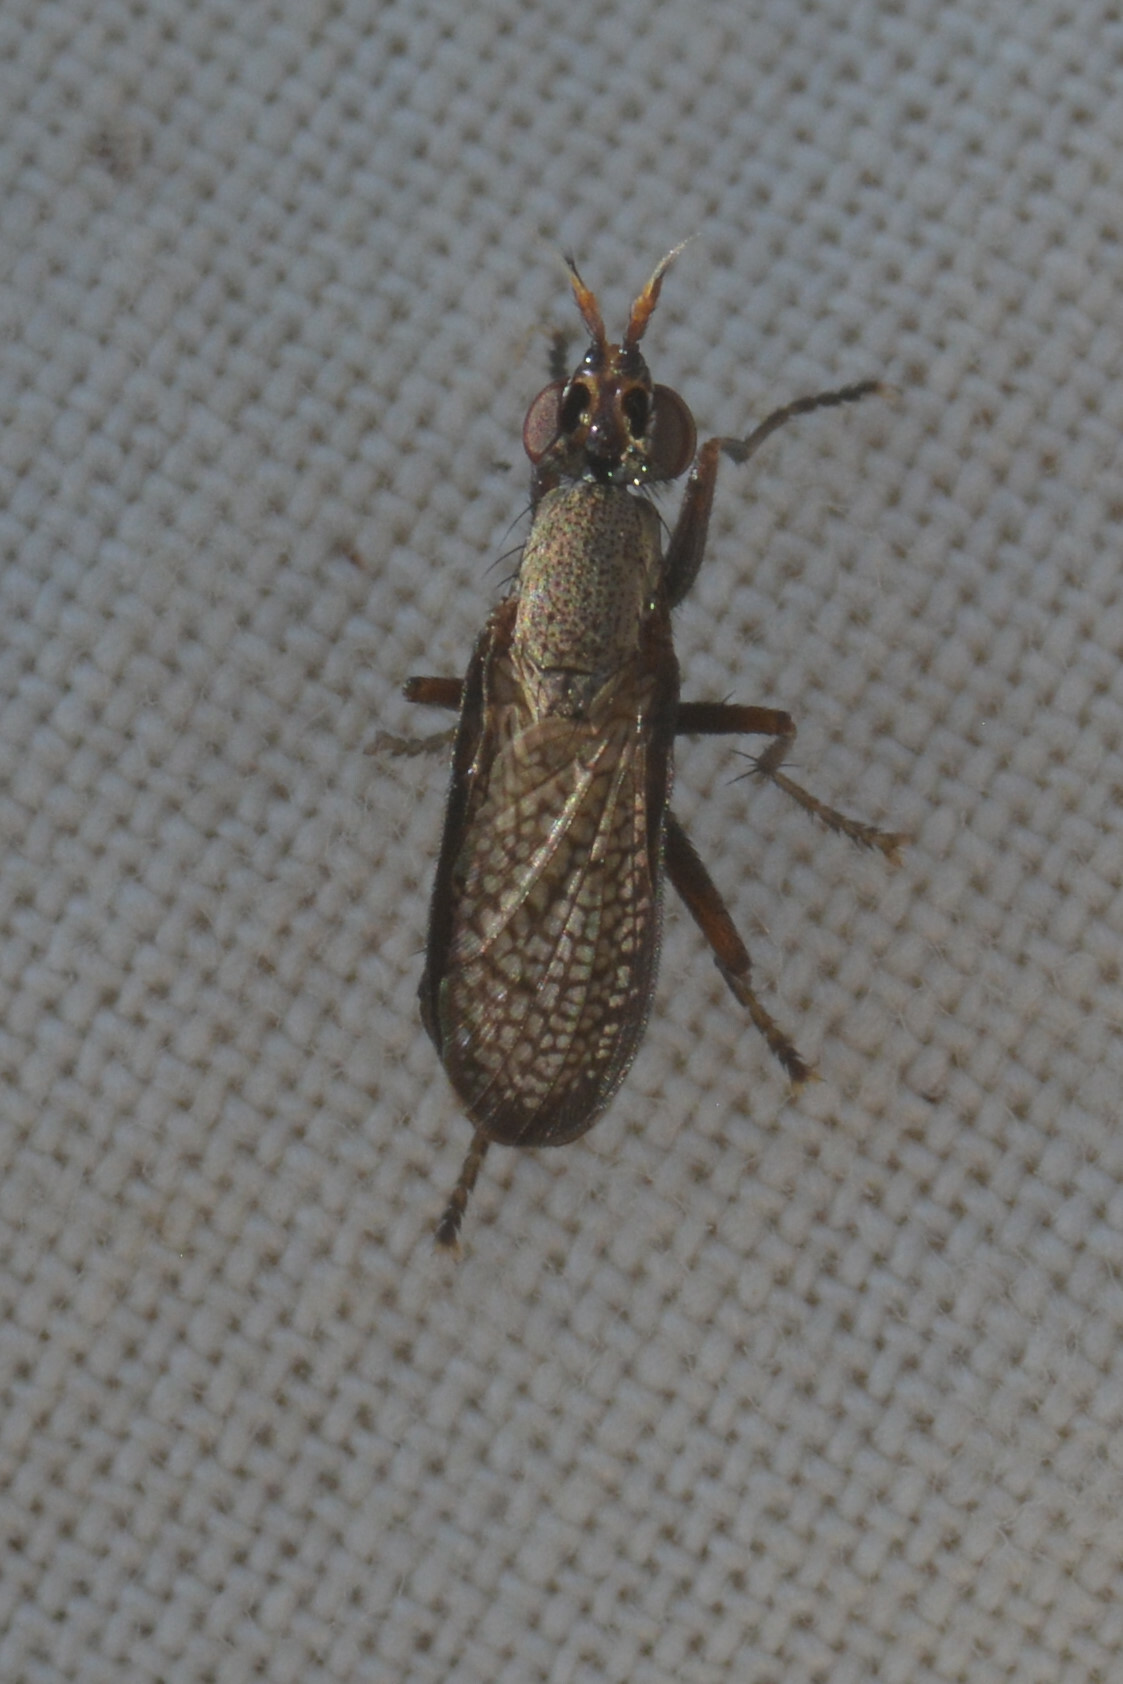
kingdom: Animalia
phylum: Arthropoda
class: Insecta
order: Diptera
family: Sciomyzidae
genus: Coremacera
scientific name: Coremacera marginata
